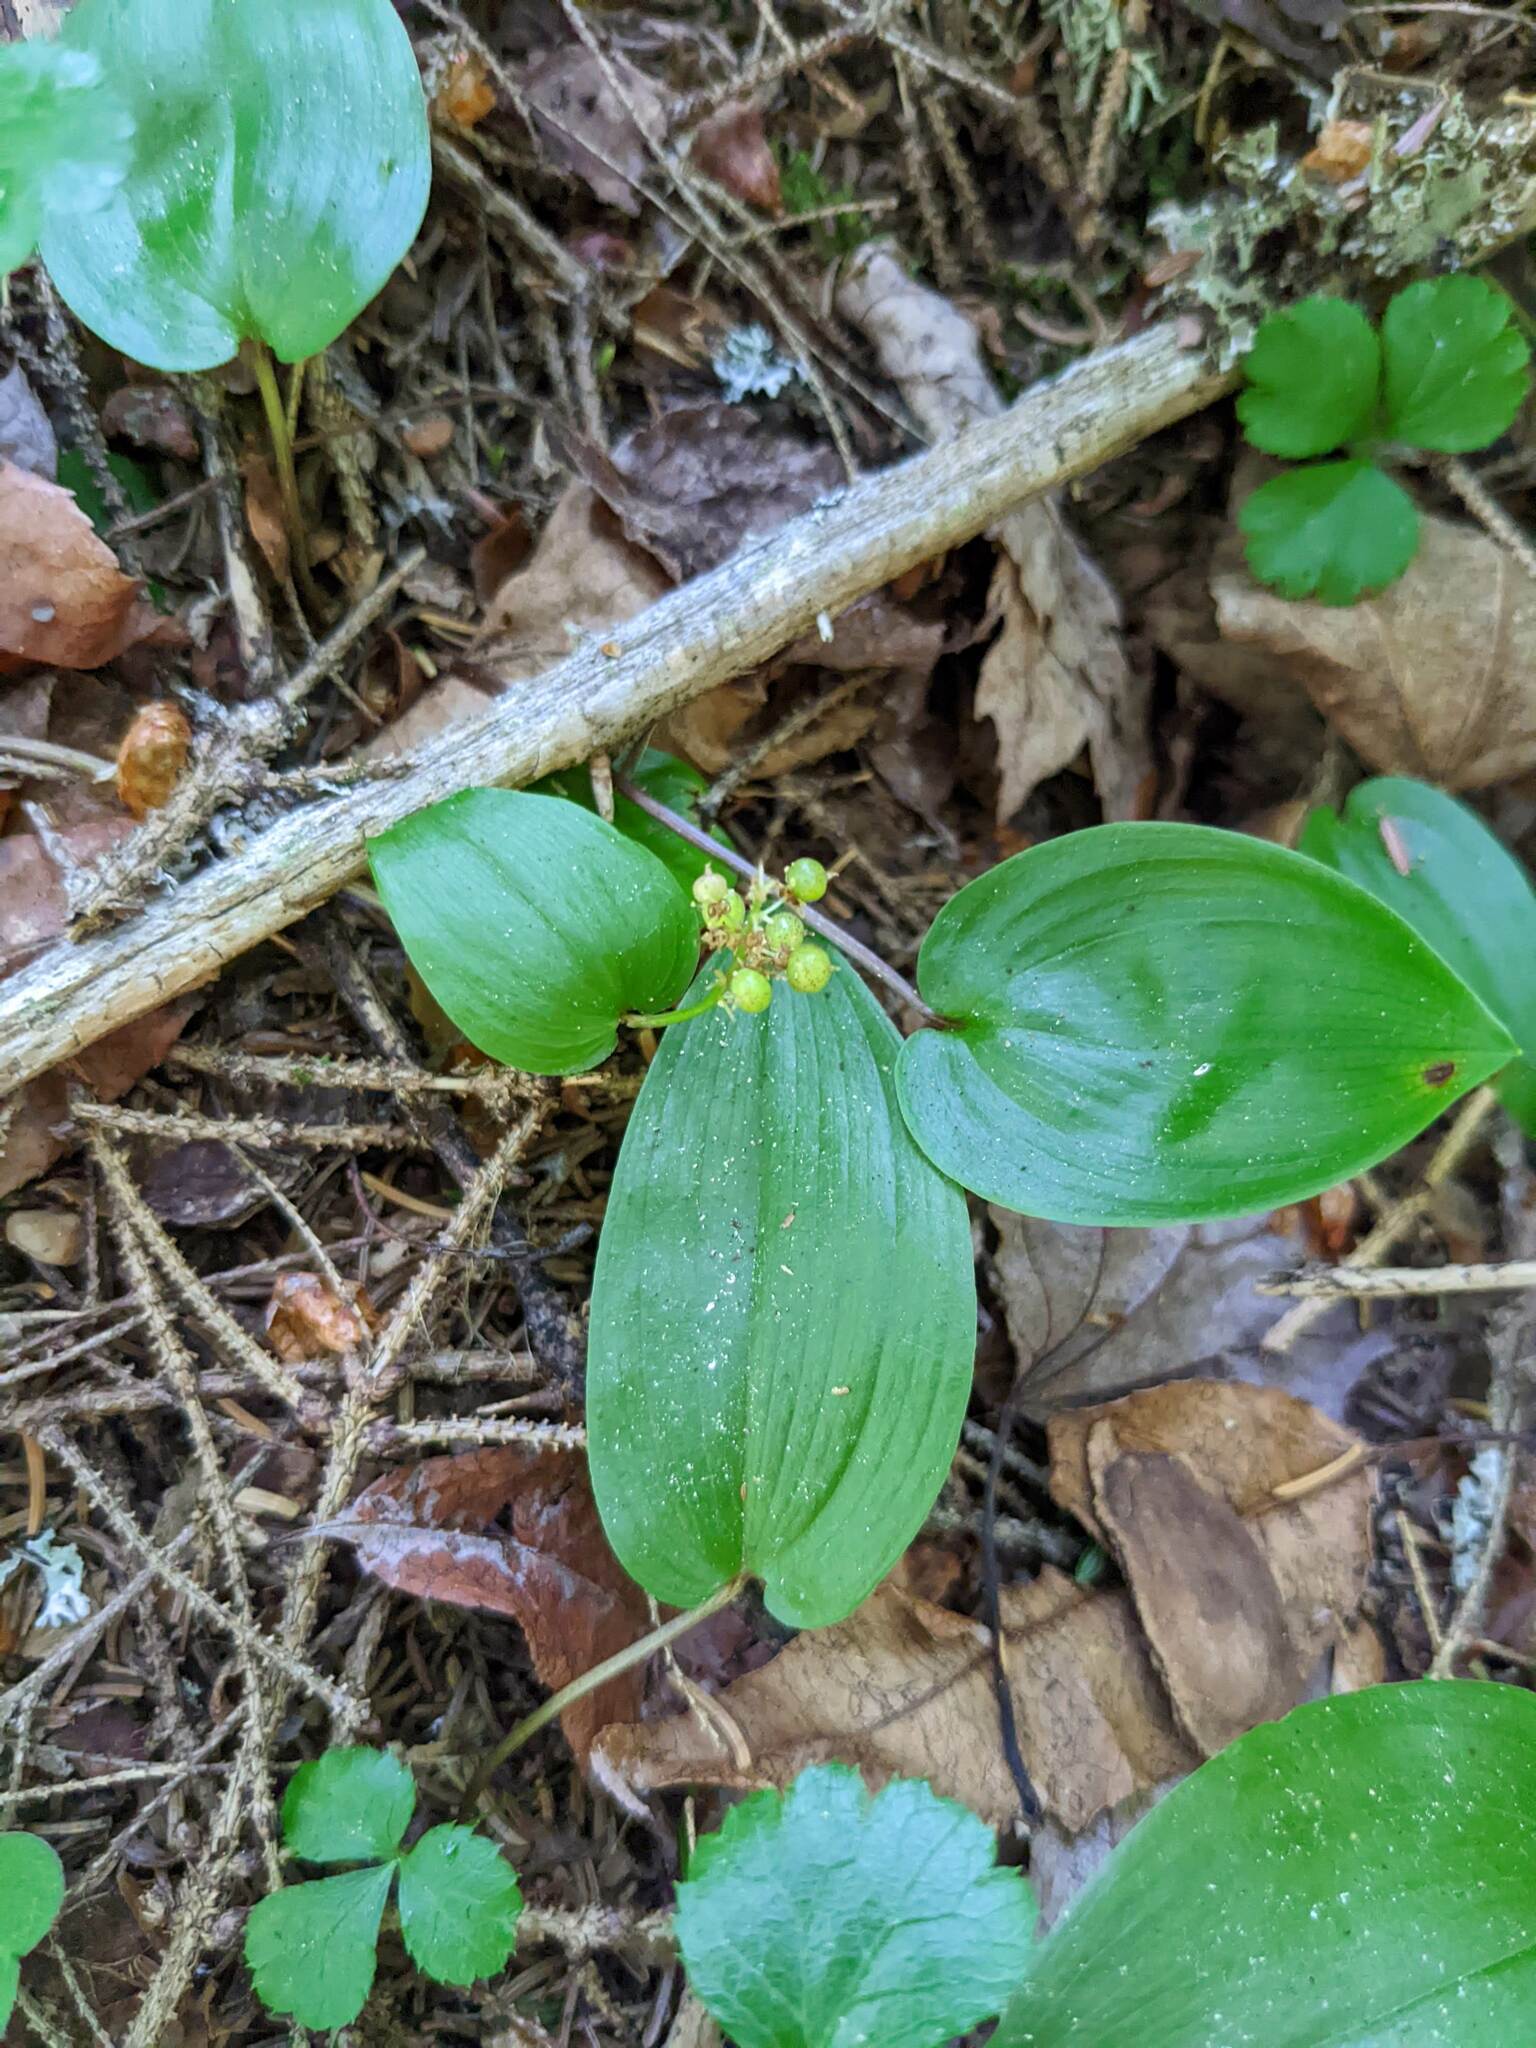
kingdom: Plantae
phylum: Tracheophyta
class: Liliopsida
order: Asparagales
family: Asparagaceae
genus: Maianthemum
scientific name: Maianthemum canadense
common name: False lily-of-the-valley
